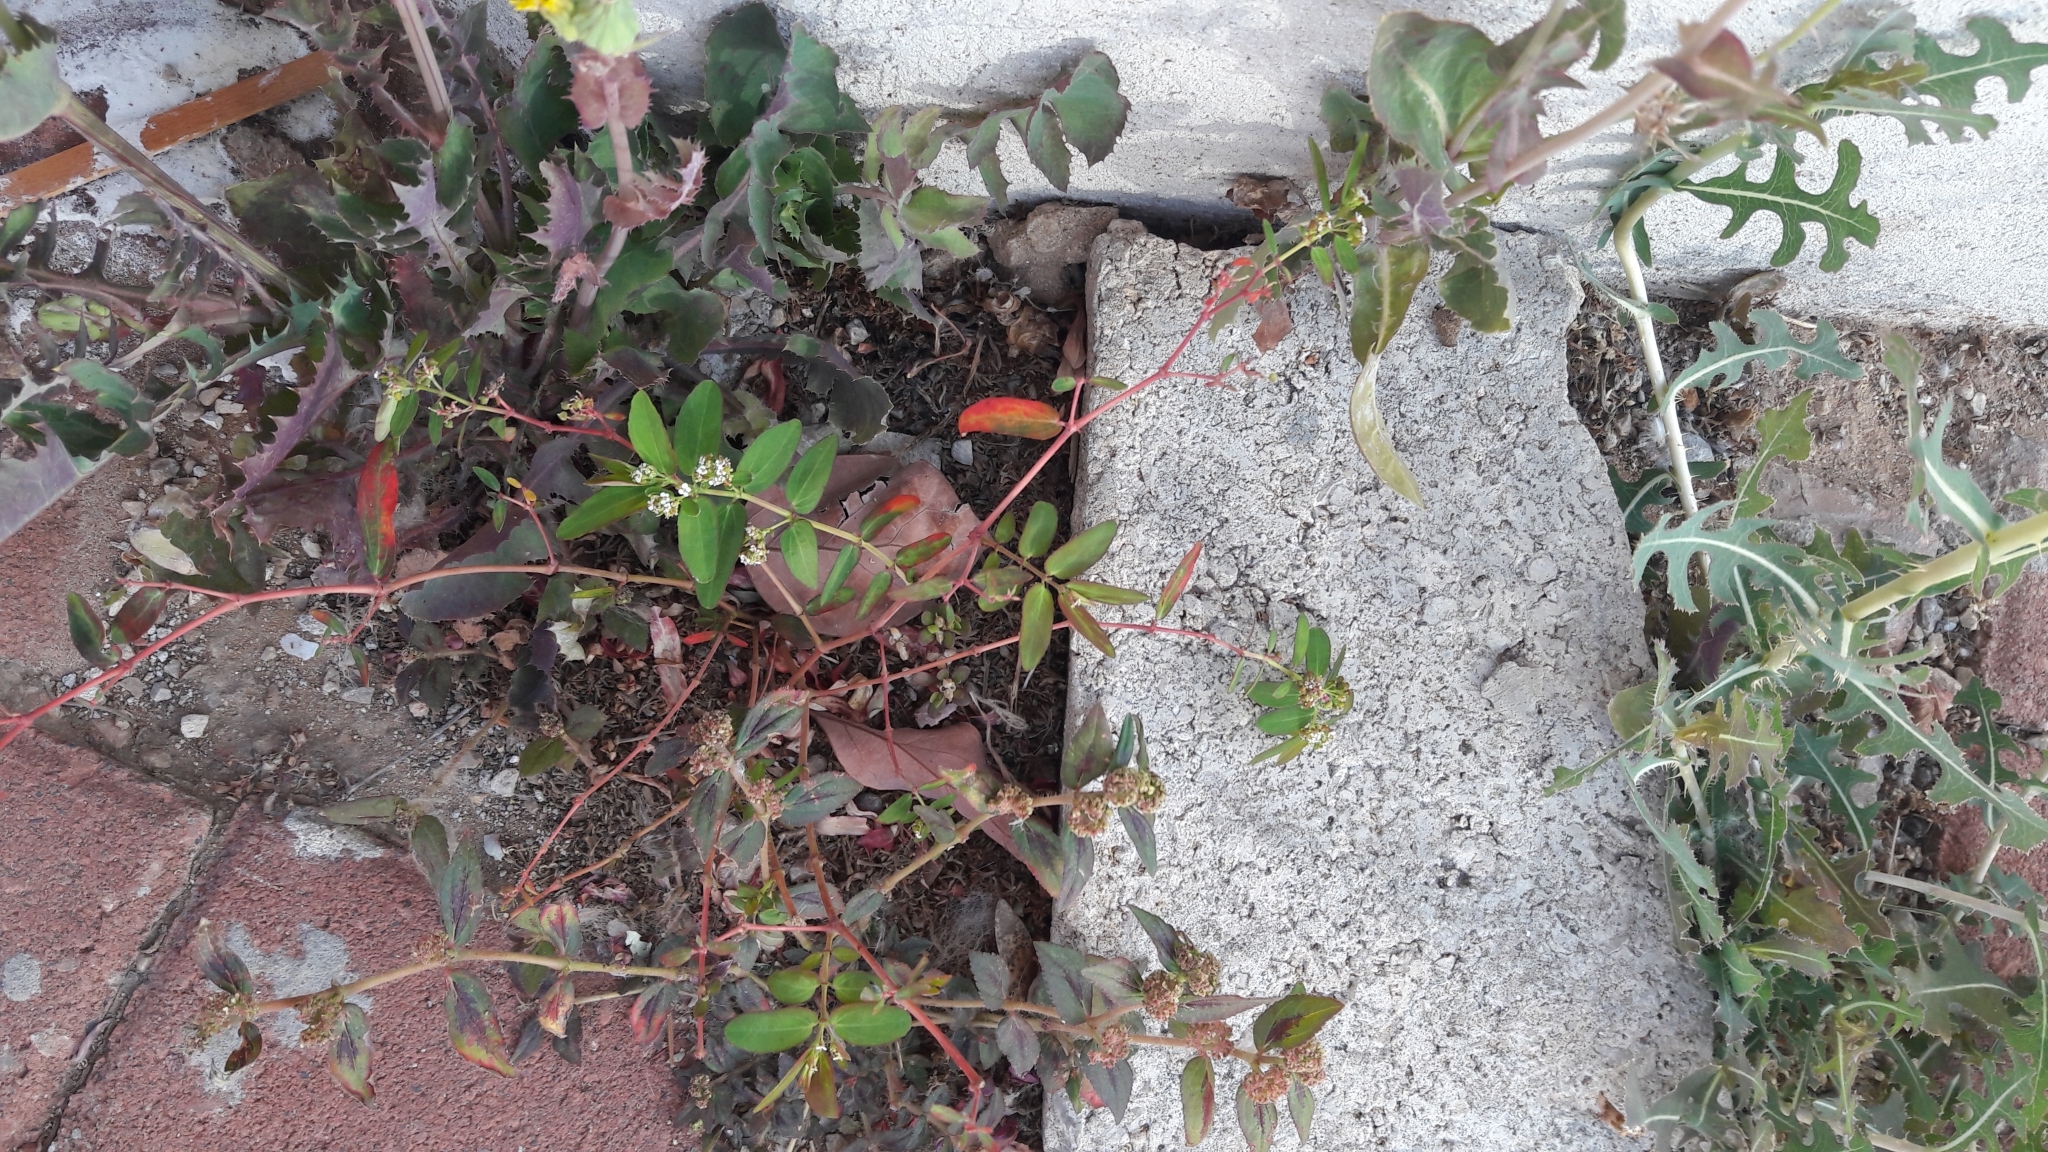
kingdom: Plantae
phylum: Tracheophyta
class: Magnoliopsida
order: Malpighiales
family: Euphorbiaceae
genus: Euphorbia
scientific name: Euphorbia hypericifolia
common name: Graceful sandmat
